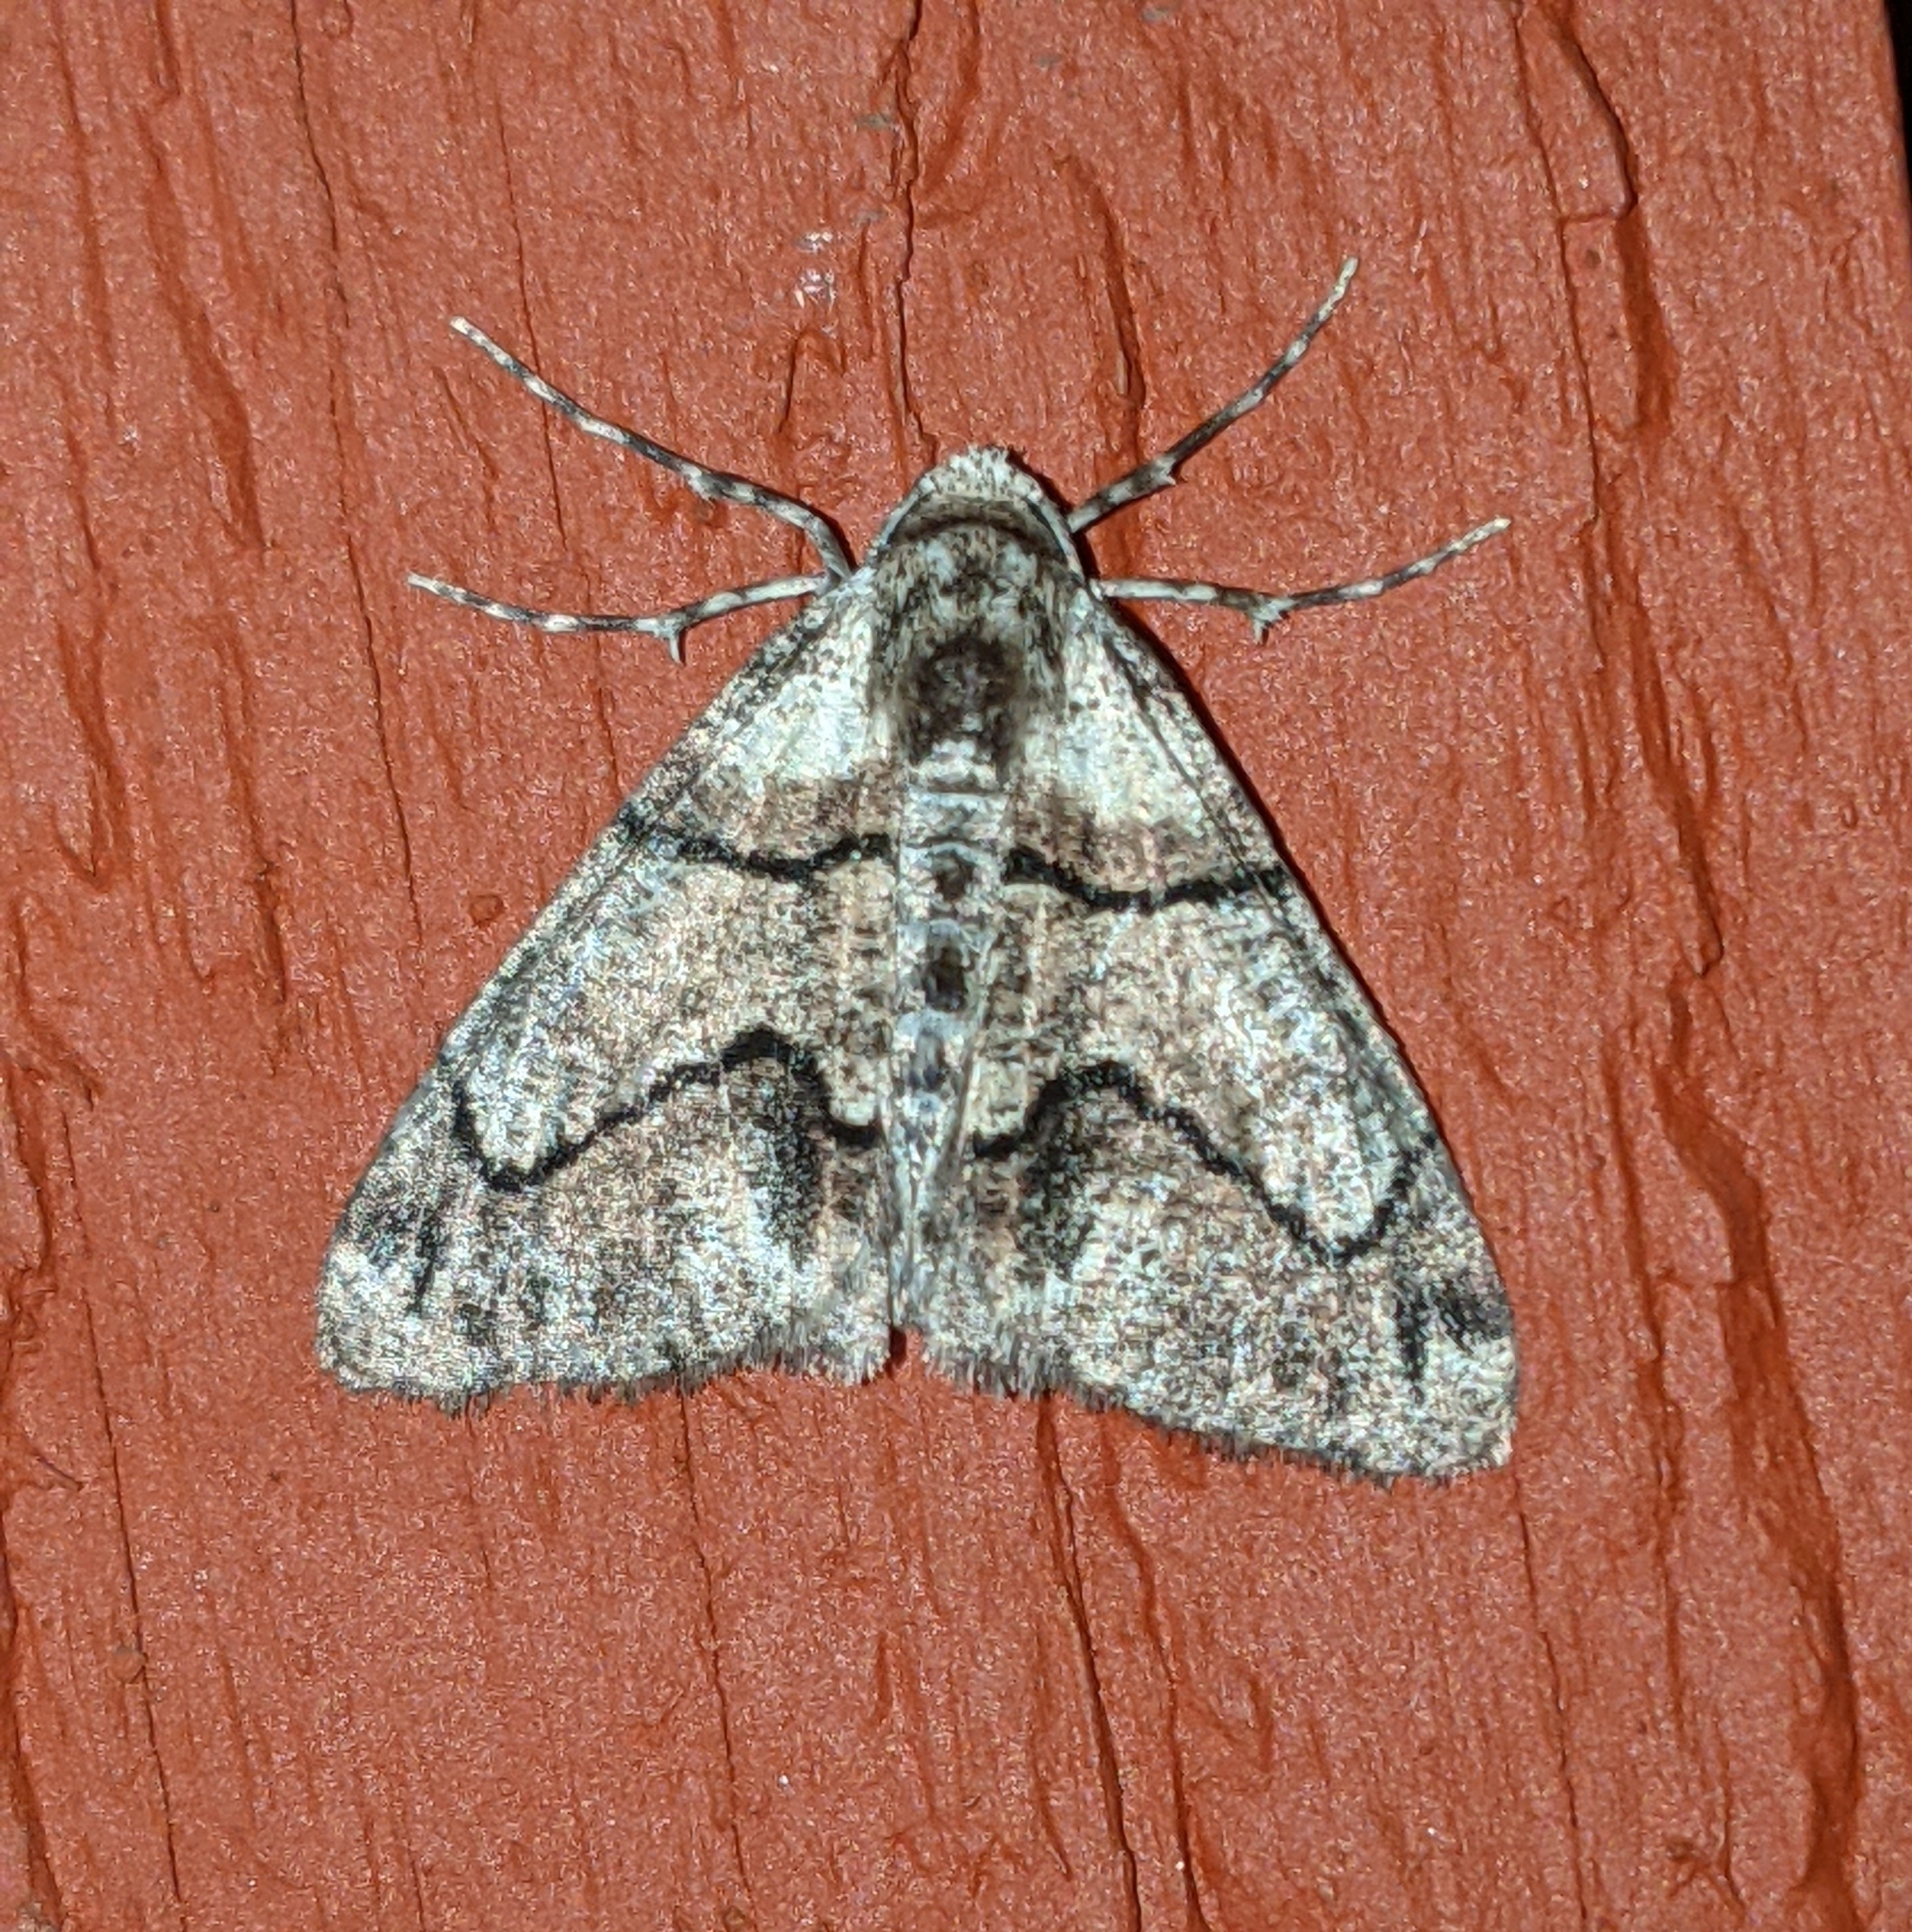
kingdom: Animalia
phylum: Arthropoda
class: Insecta
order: Lepidoptera
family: Geometridae
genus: Gabriola
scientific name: Gabriola dyari
